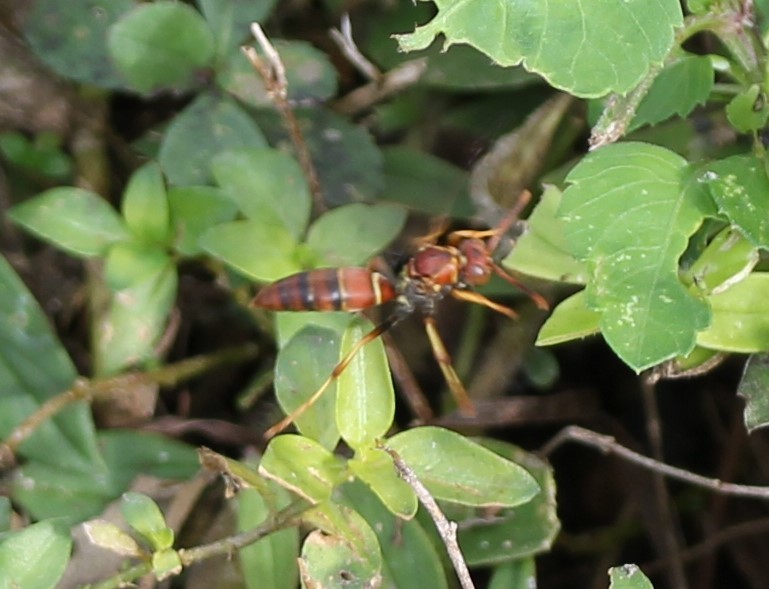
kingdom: Animalia
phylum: Arthropoda
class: Insecta
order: Hymenoptera
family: Eumenidae
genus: Polistes
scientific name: Polistes bahamensis
